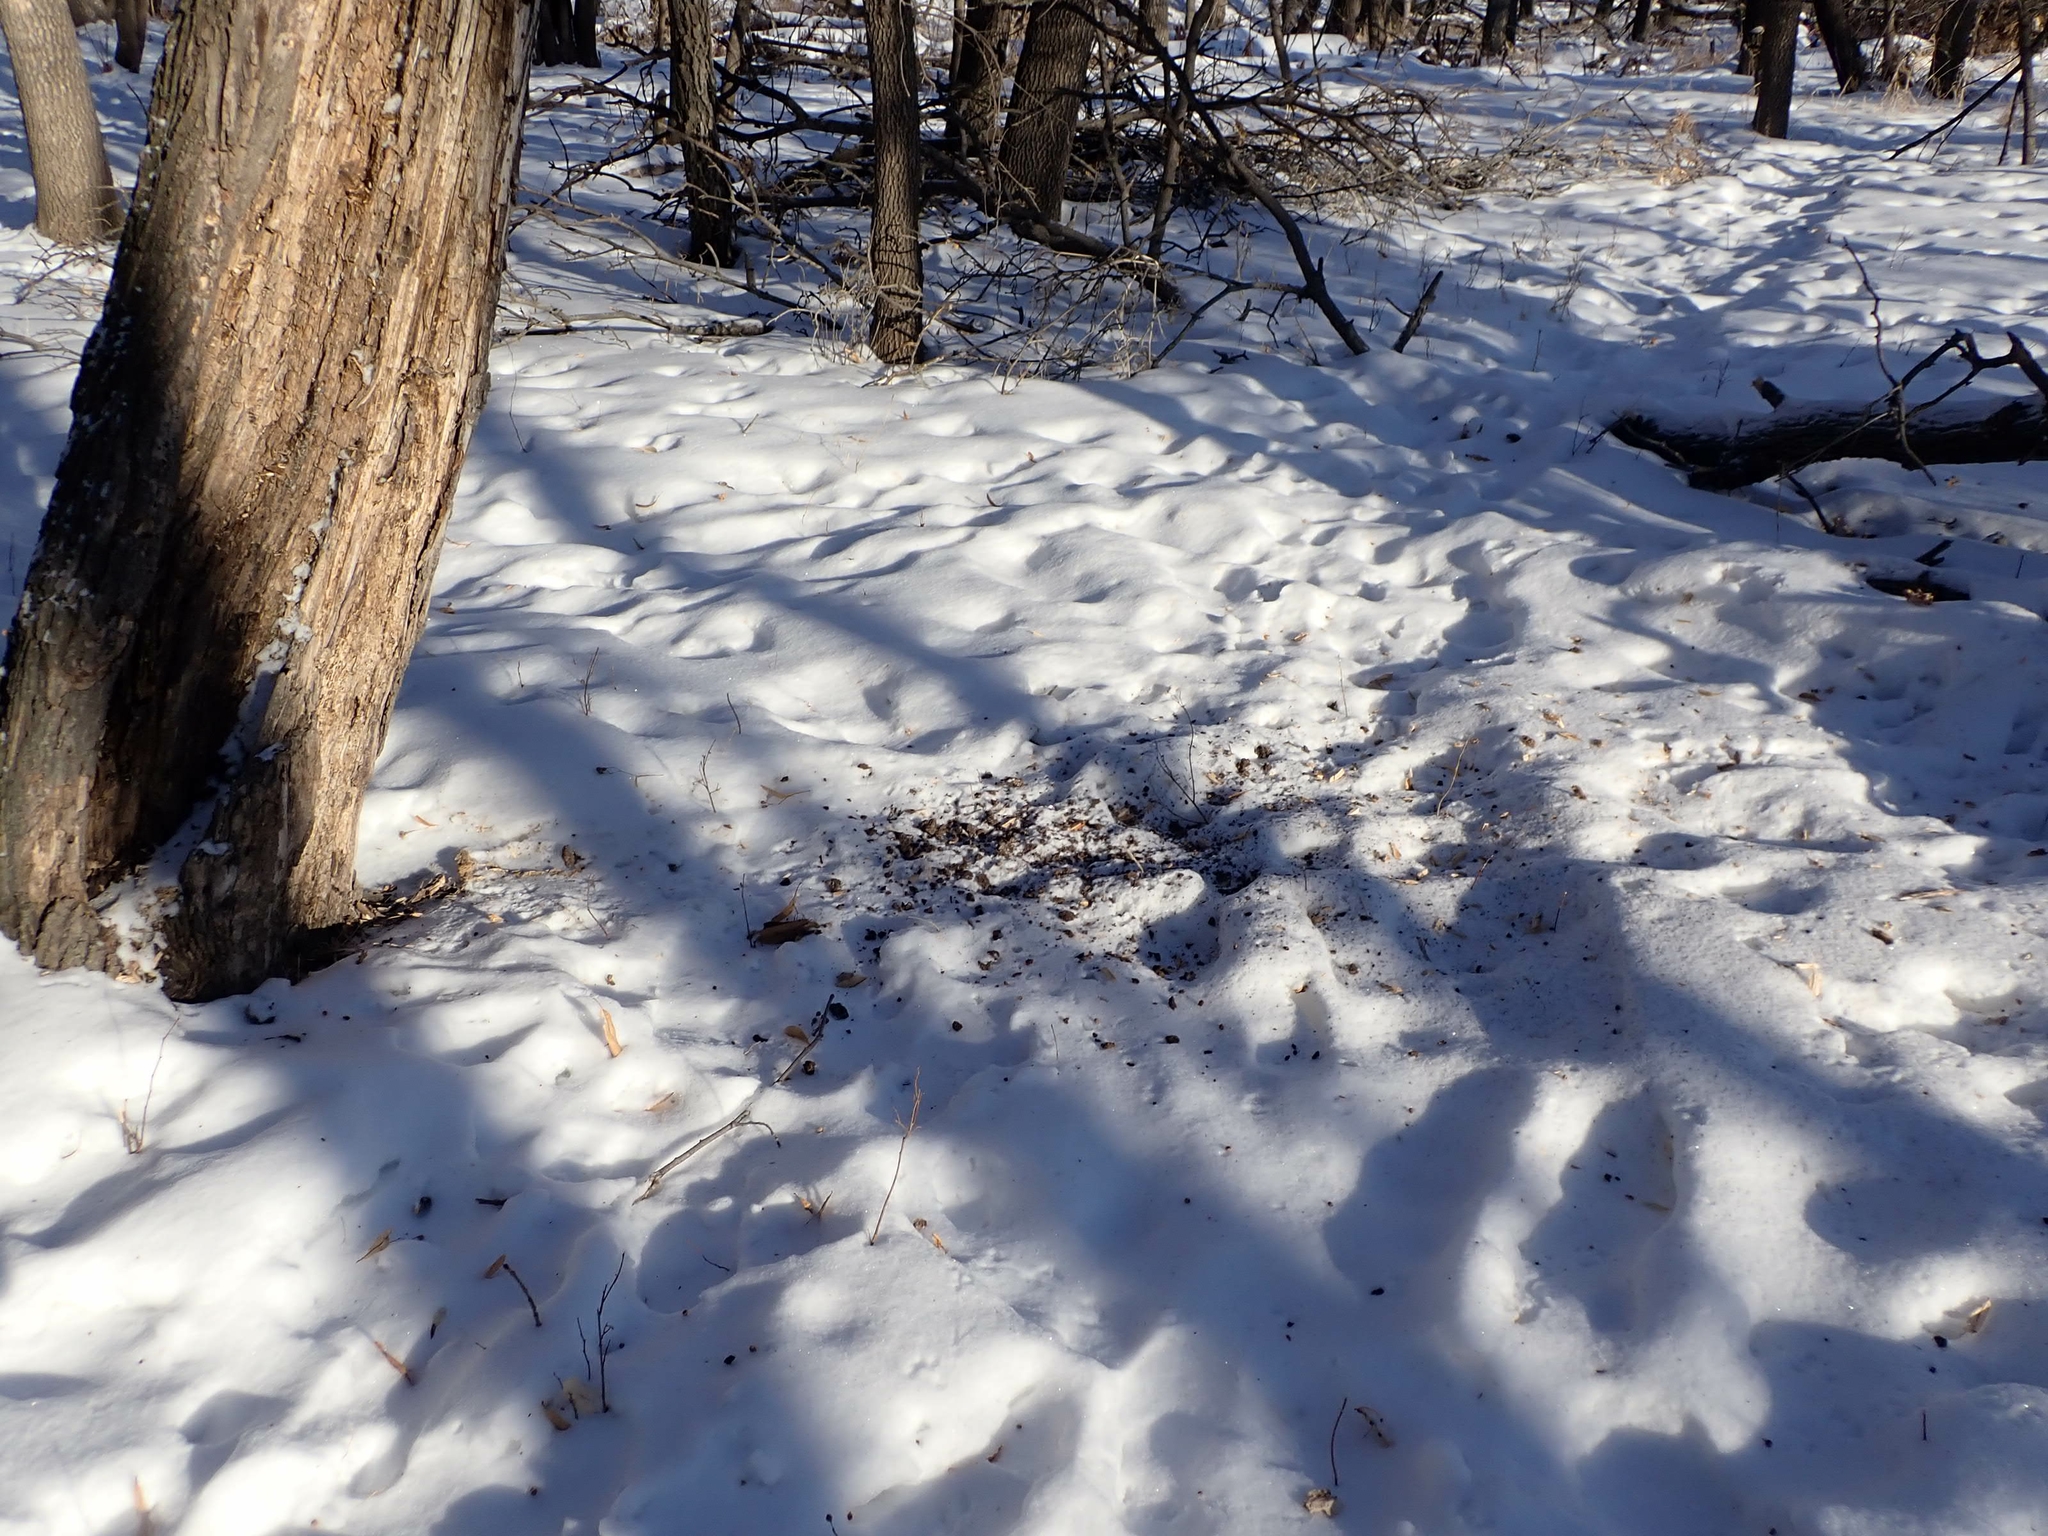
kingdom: Animalia
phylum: Chordata
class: Aves
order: Piciformes
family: Picidae
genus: Dryocopus
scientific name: Dryocopus pileatus
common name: Pileated woodpecker
